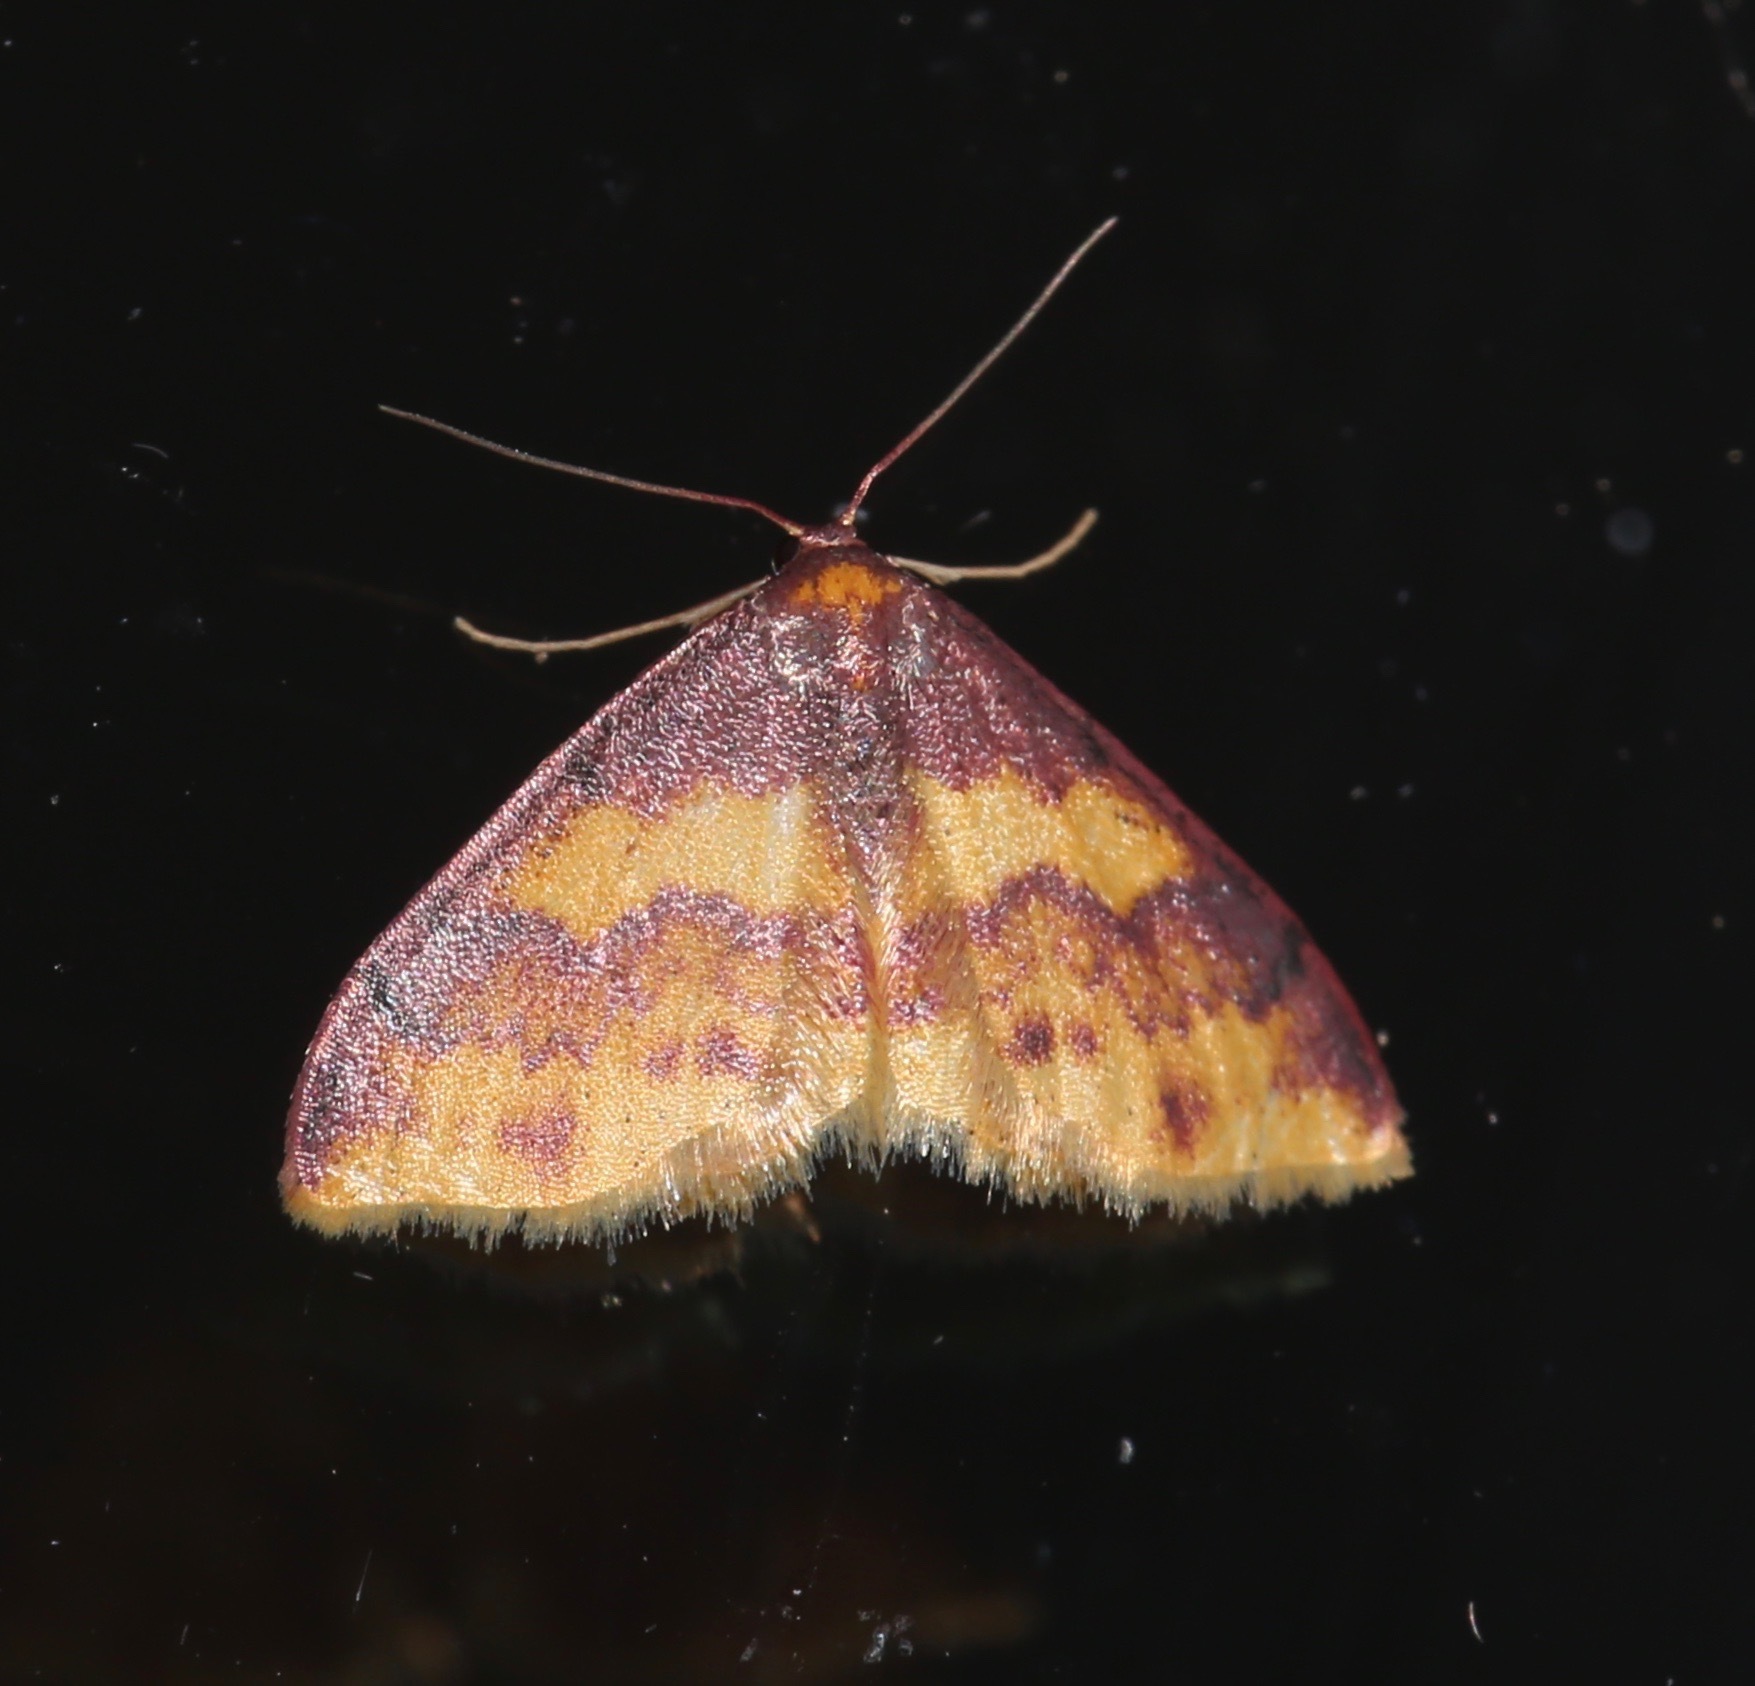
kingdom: Animalia
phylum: Arthropoda
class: Insecta
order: Lepidoptera
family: Geometridae
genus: Lophosis
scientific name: Lophosis labeculata
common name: Stained lophosis moth
